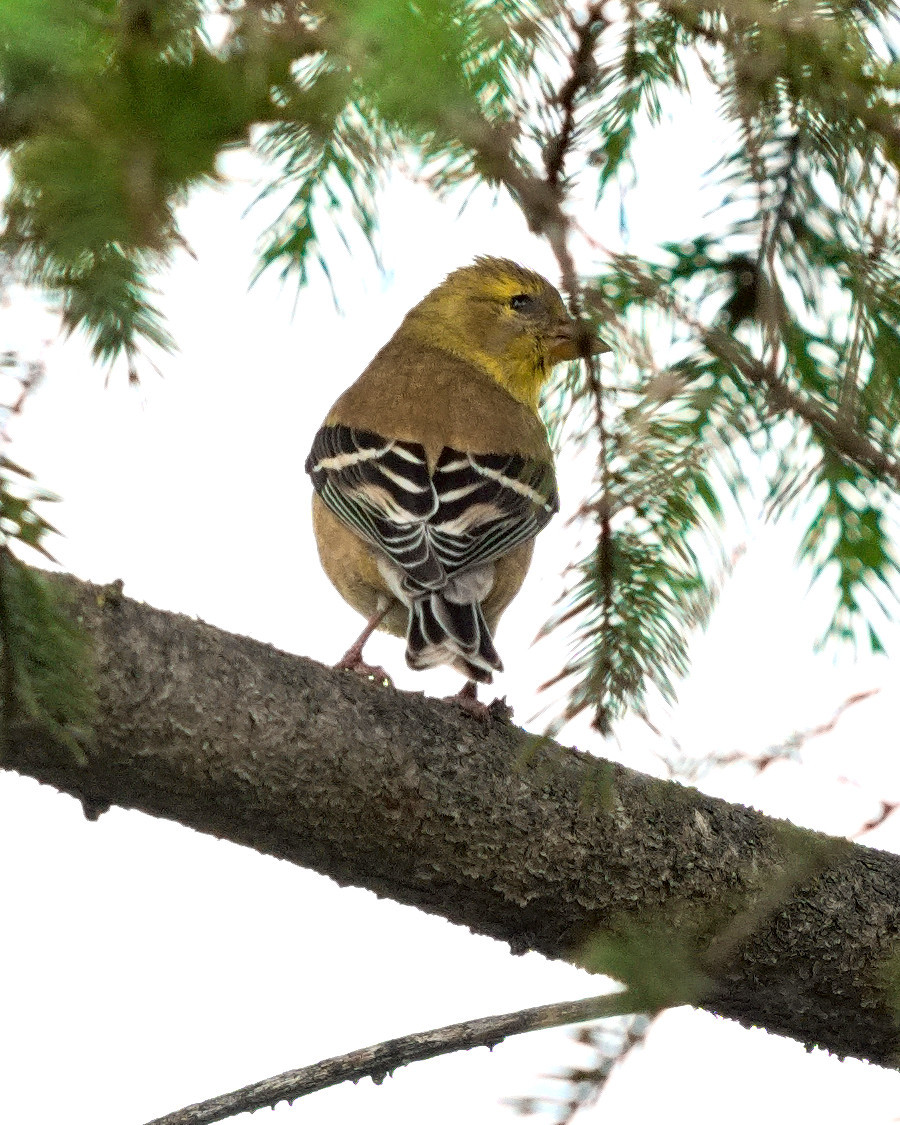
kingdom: Animalia
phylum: Chordata
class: Aves
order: Passeriformes
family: Fringillidae
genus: Spinus
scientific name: Spinus tristis
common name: American goldfinch
